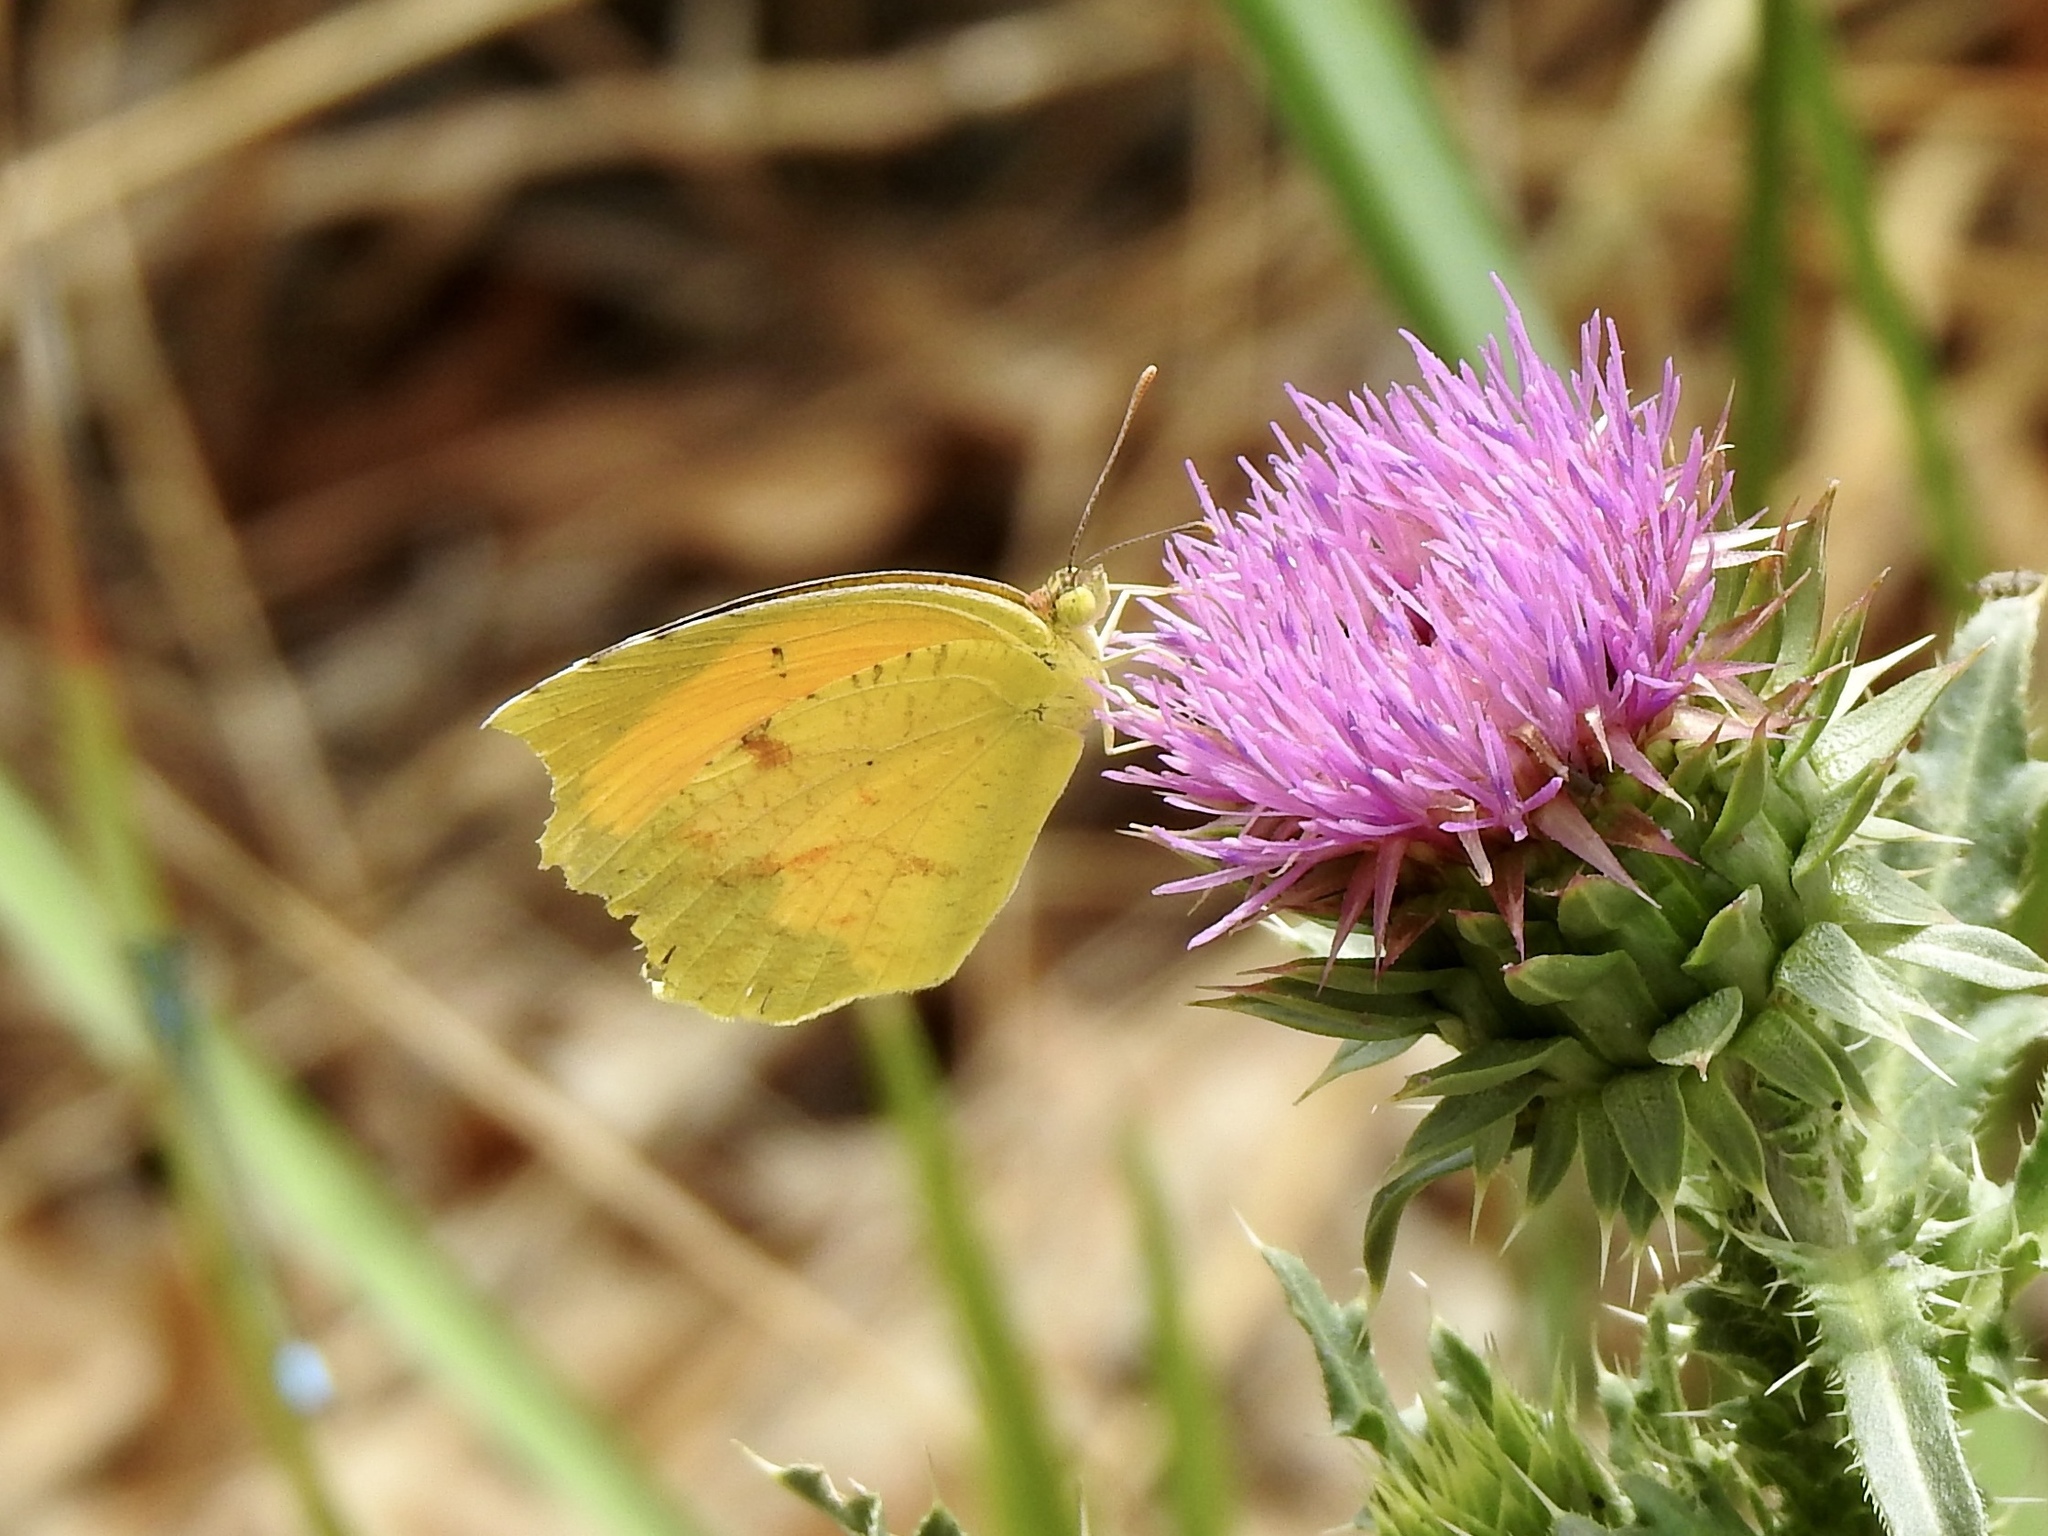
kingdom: Animalia
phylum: Arthropoda
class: Insecta
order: Lepidoptera
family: Pieridae
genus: Abaeis
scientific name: Abaeis nicippe
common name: Sleepy orange
